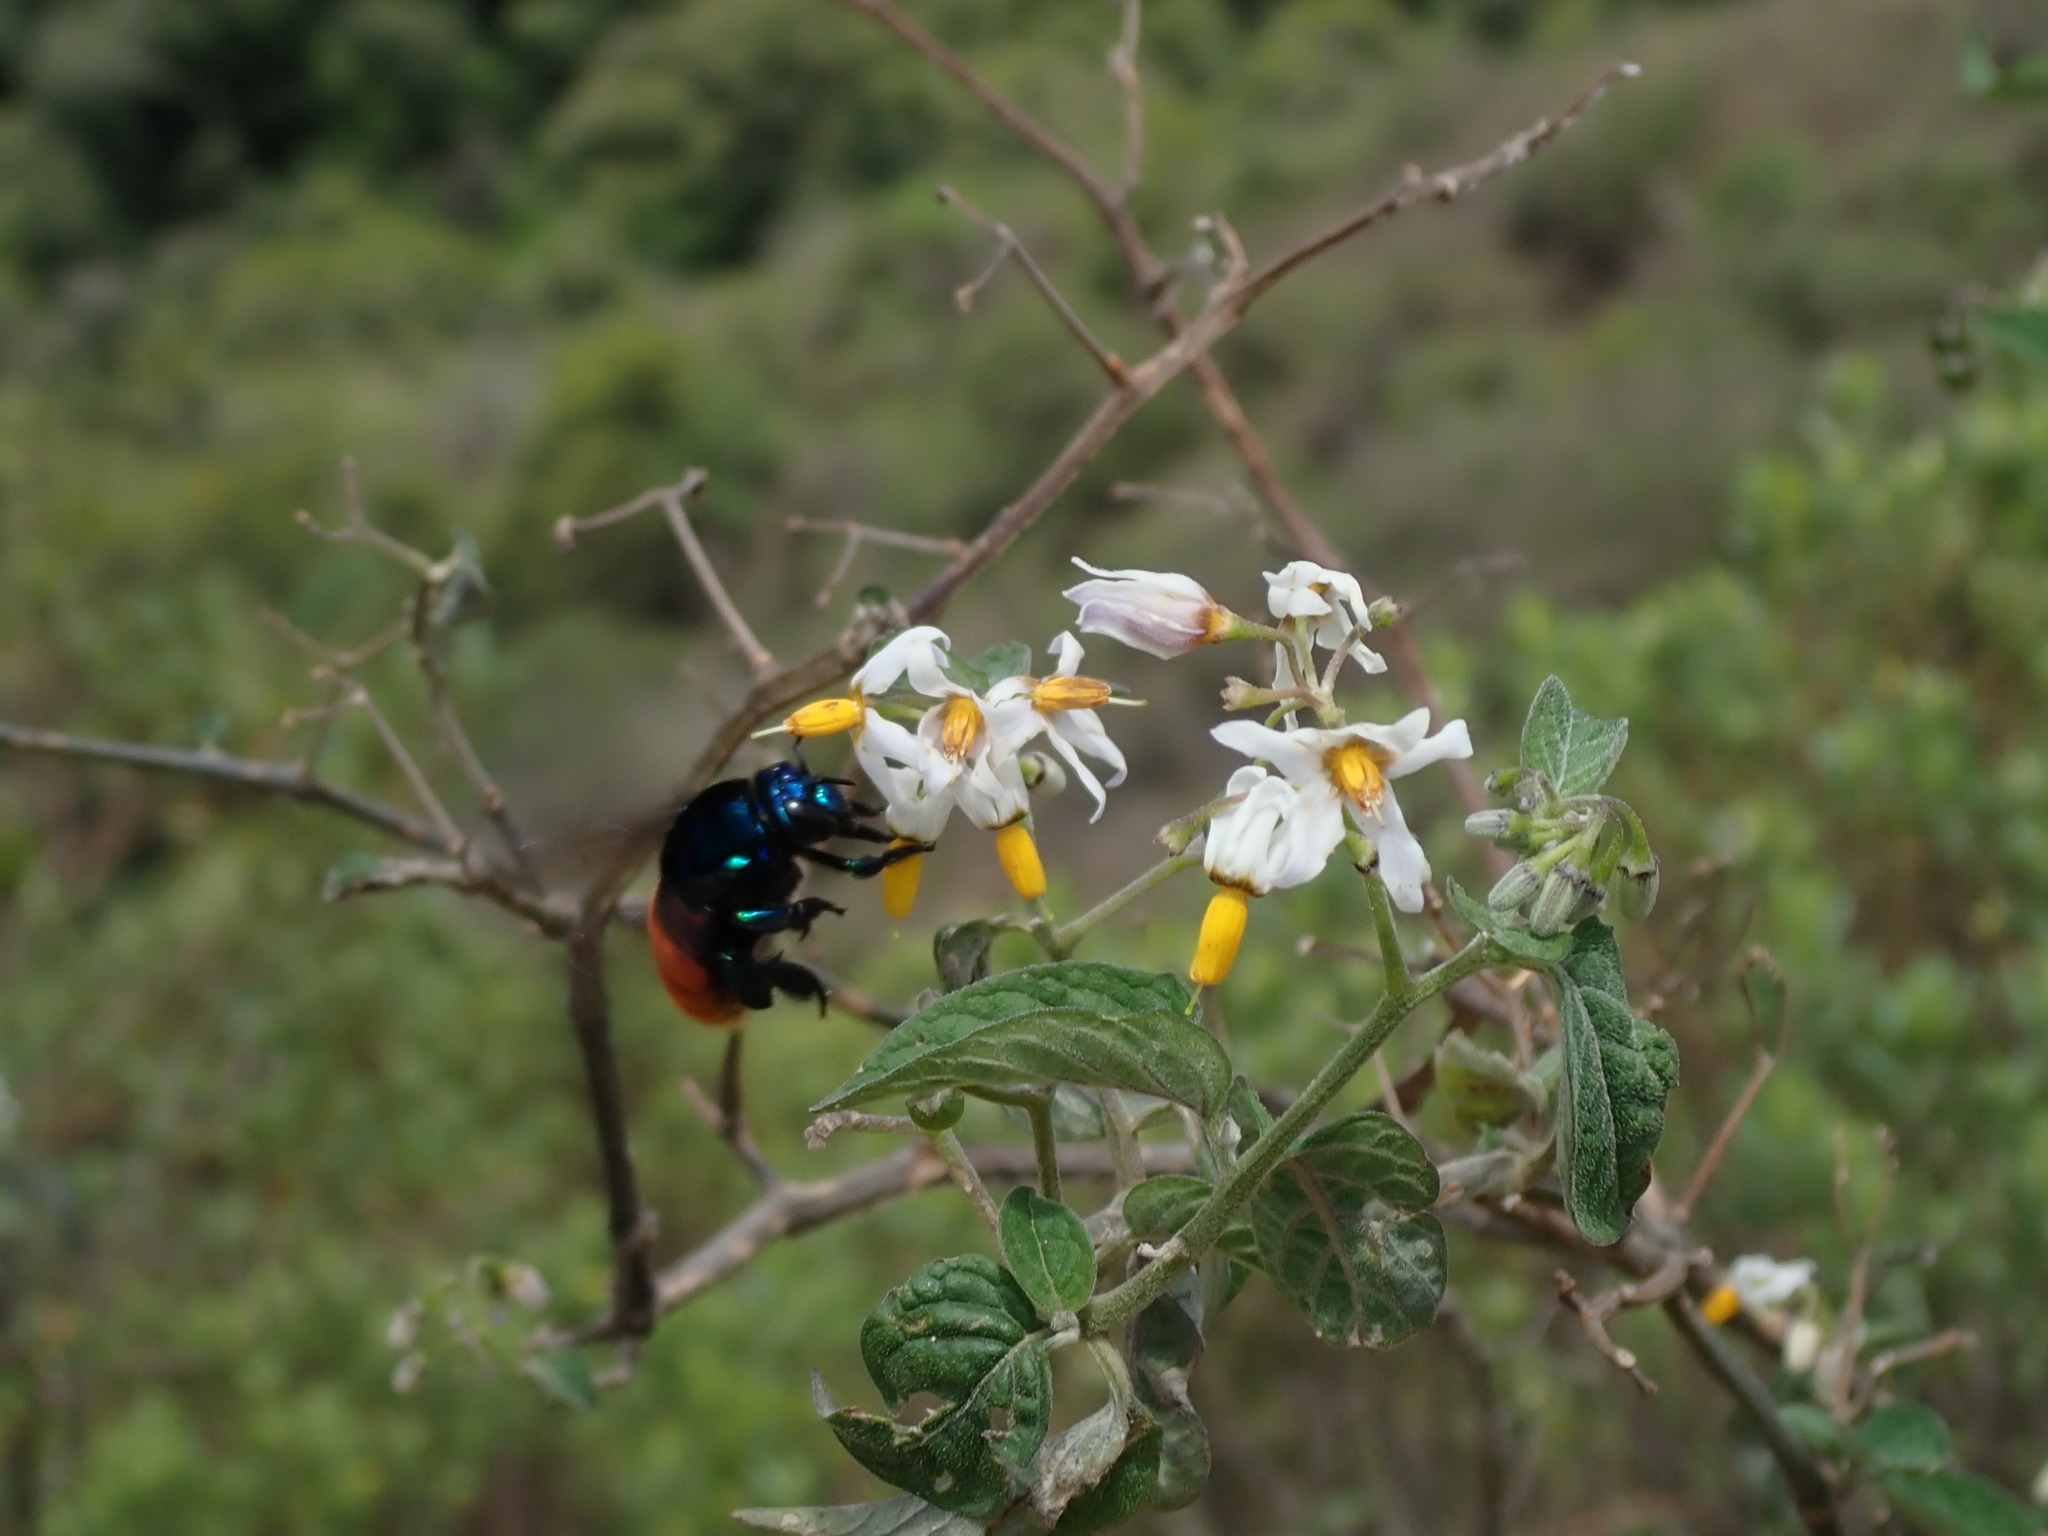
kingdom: Animalia
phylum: Arthropoda
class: Insecta
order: Hymenoptera
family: Apidae
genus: Eufriesea
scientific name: Eufriesea mariana
